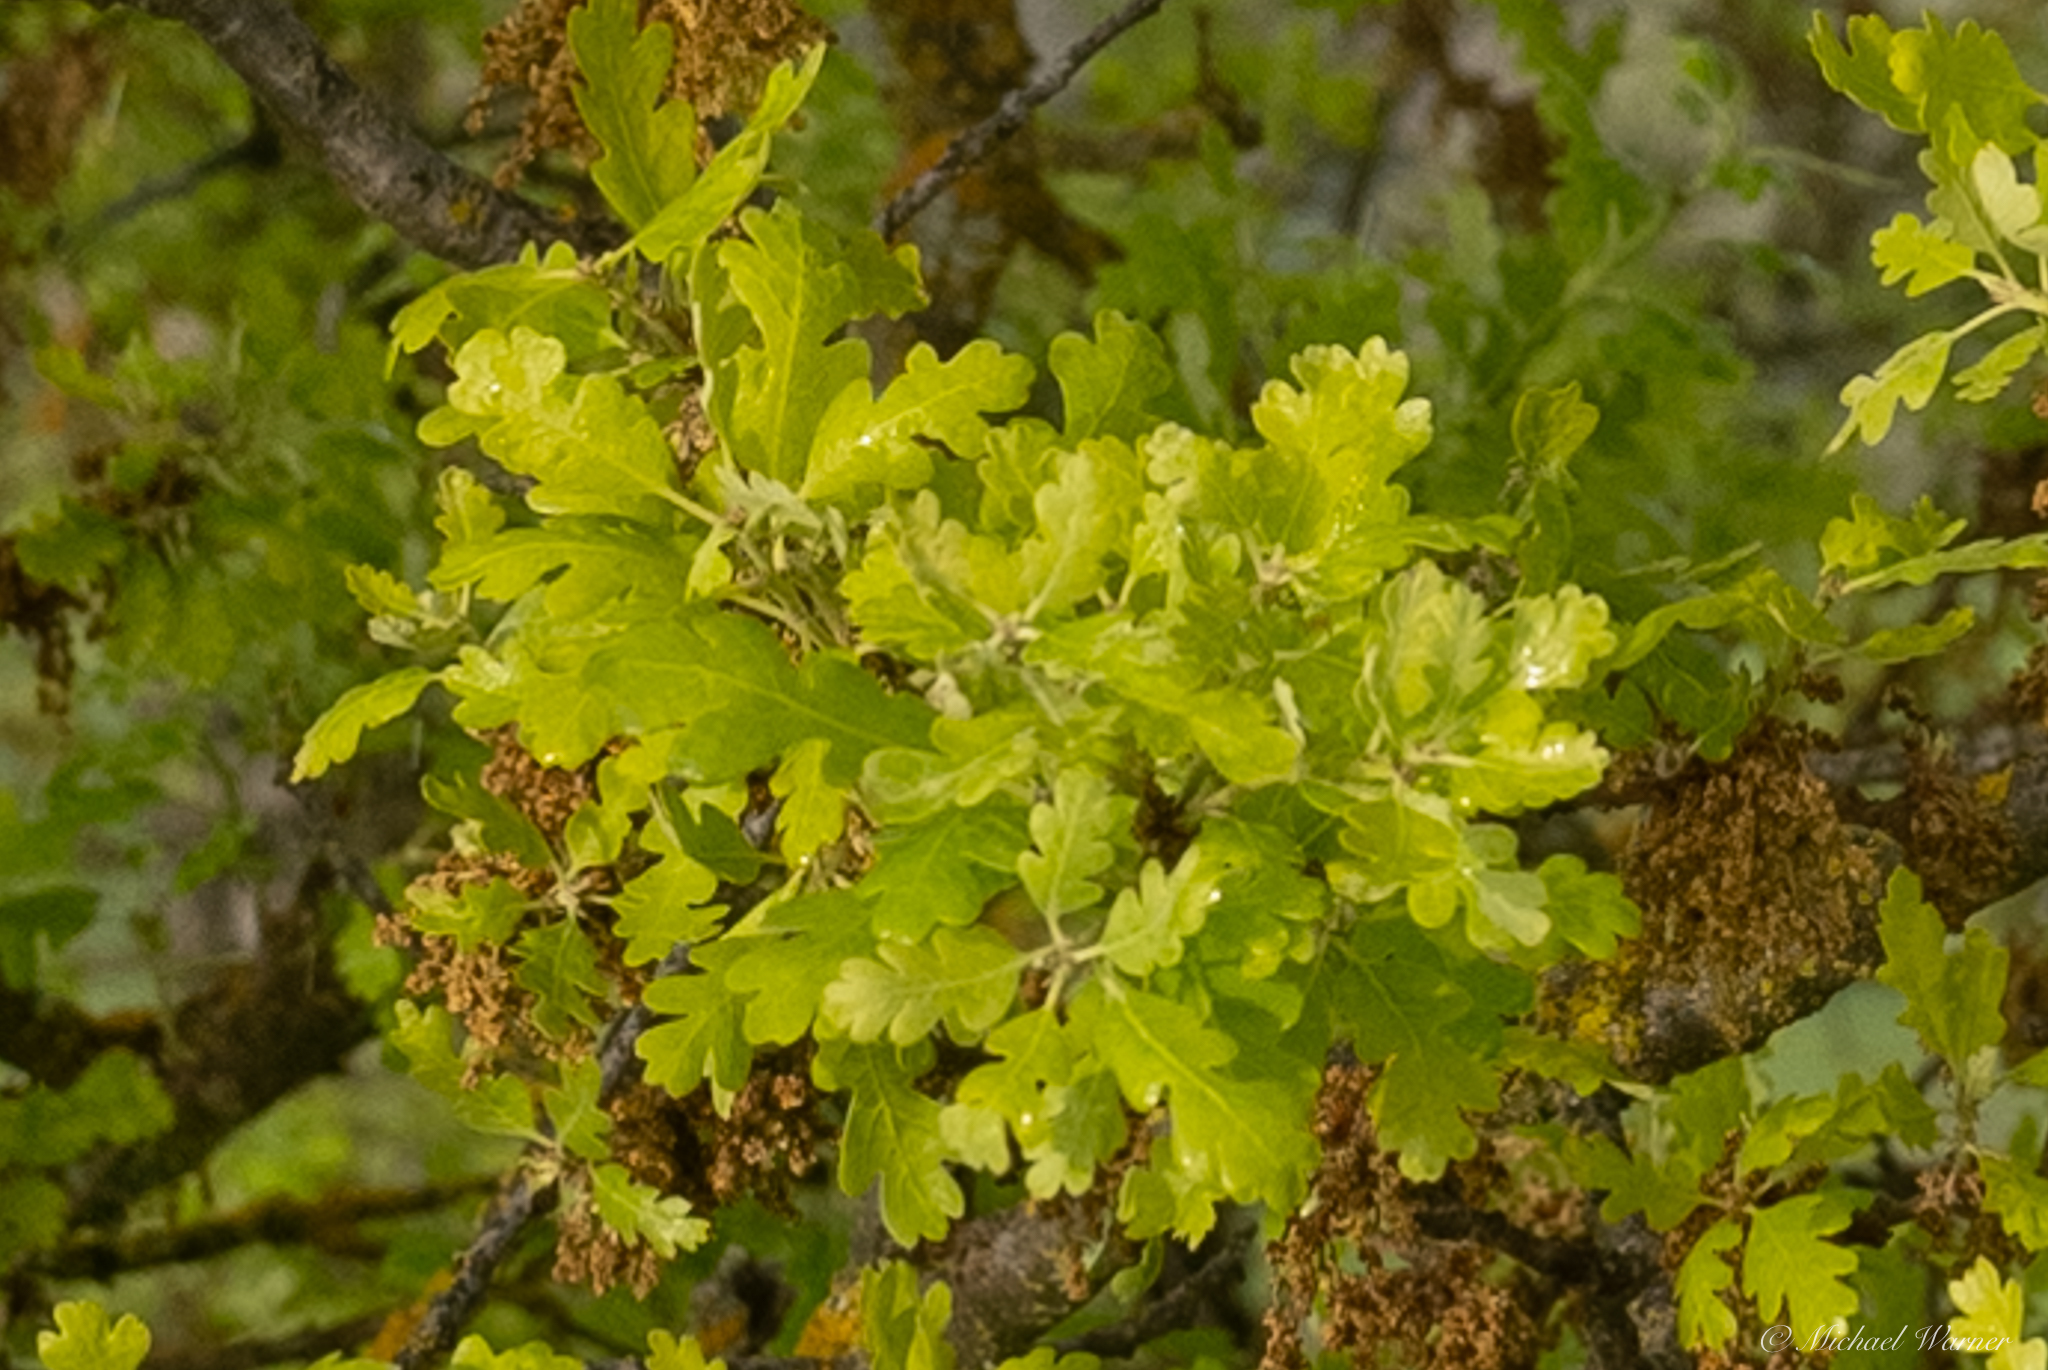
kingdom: Plantae
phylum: Tracheophyta
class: Magnoliopsida
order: Fagales
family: Fagaceae
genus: Quercus
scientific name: Quercus garryana
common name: Garry oak
